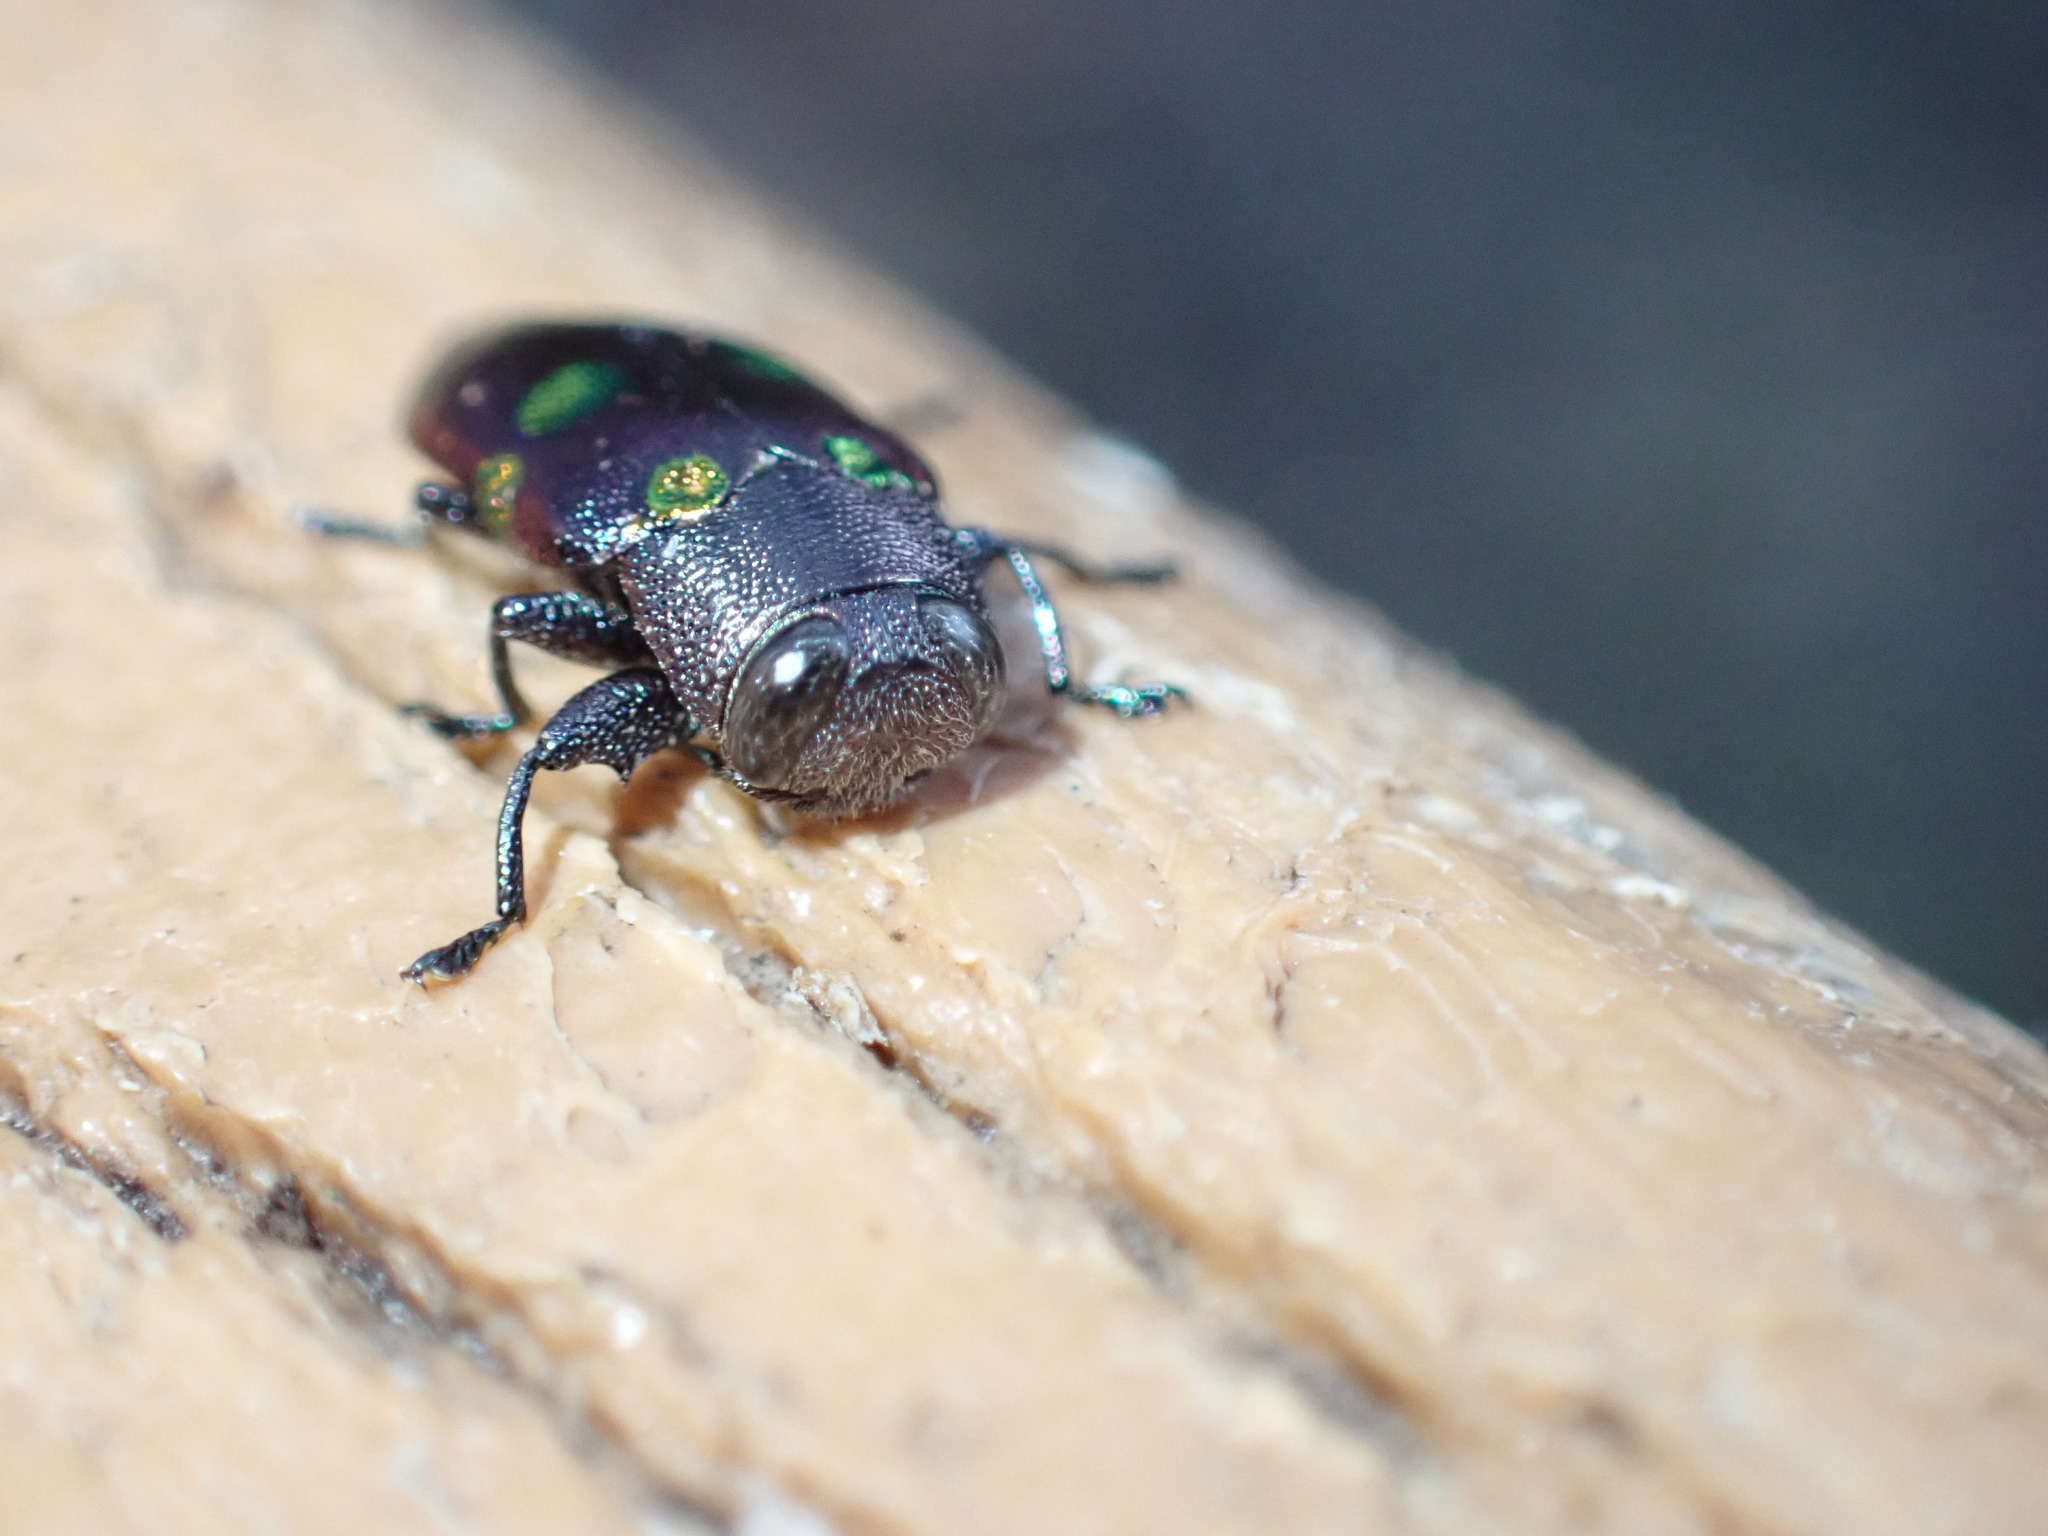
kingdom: Animalia
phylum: Arthropoda
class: Insecta
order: Coleoptera
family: Buprestidae
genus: Chrysobothris
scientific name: Chrysobothris chrysoela
